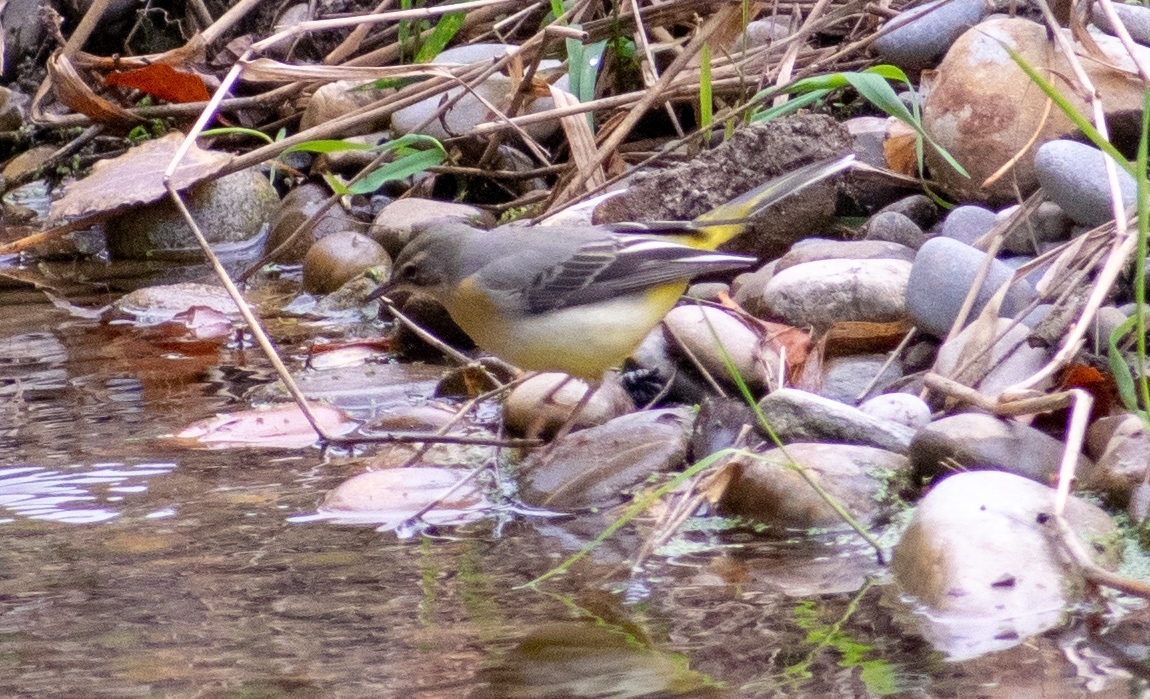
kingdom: Animalia
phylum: Chordata
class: Aves
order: Passeriformes
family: Motacillidae
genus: Motacilla
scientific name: Motacilla cinerea
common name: Grey wagtail
